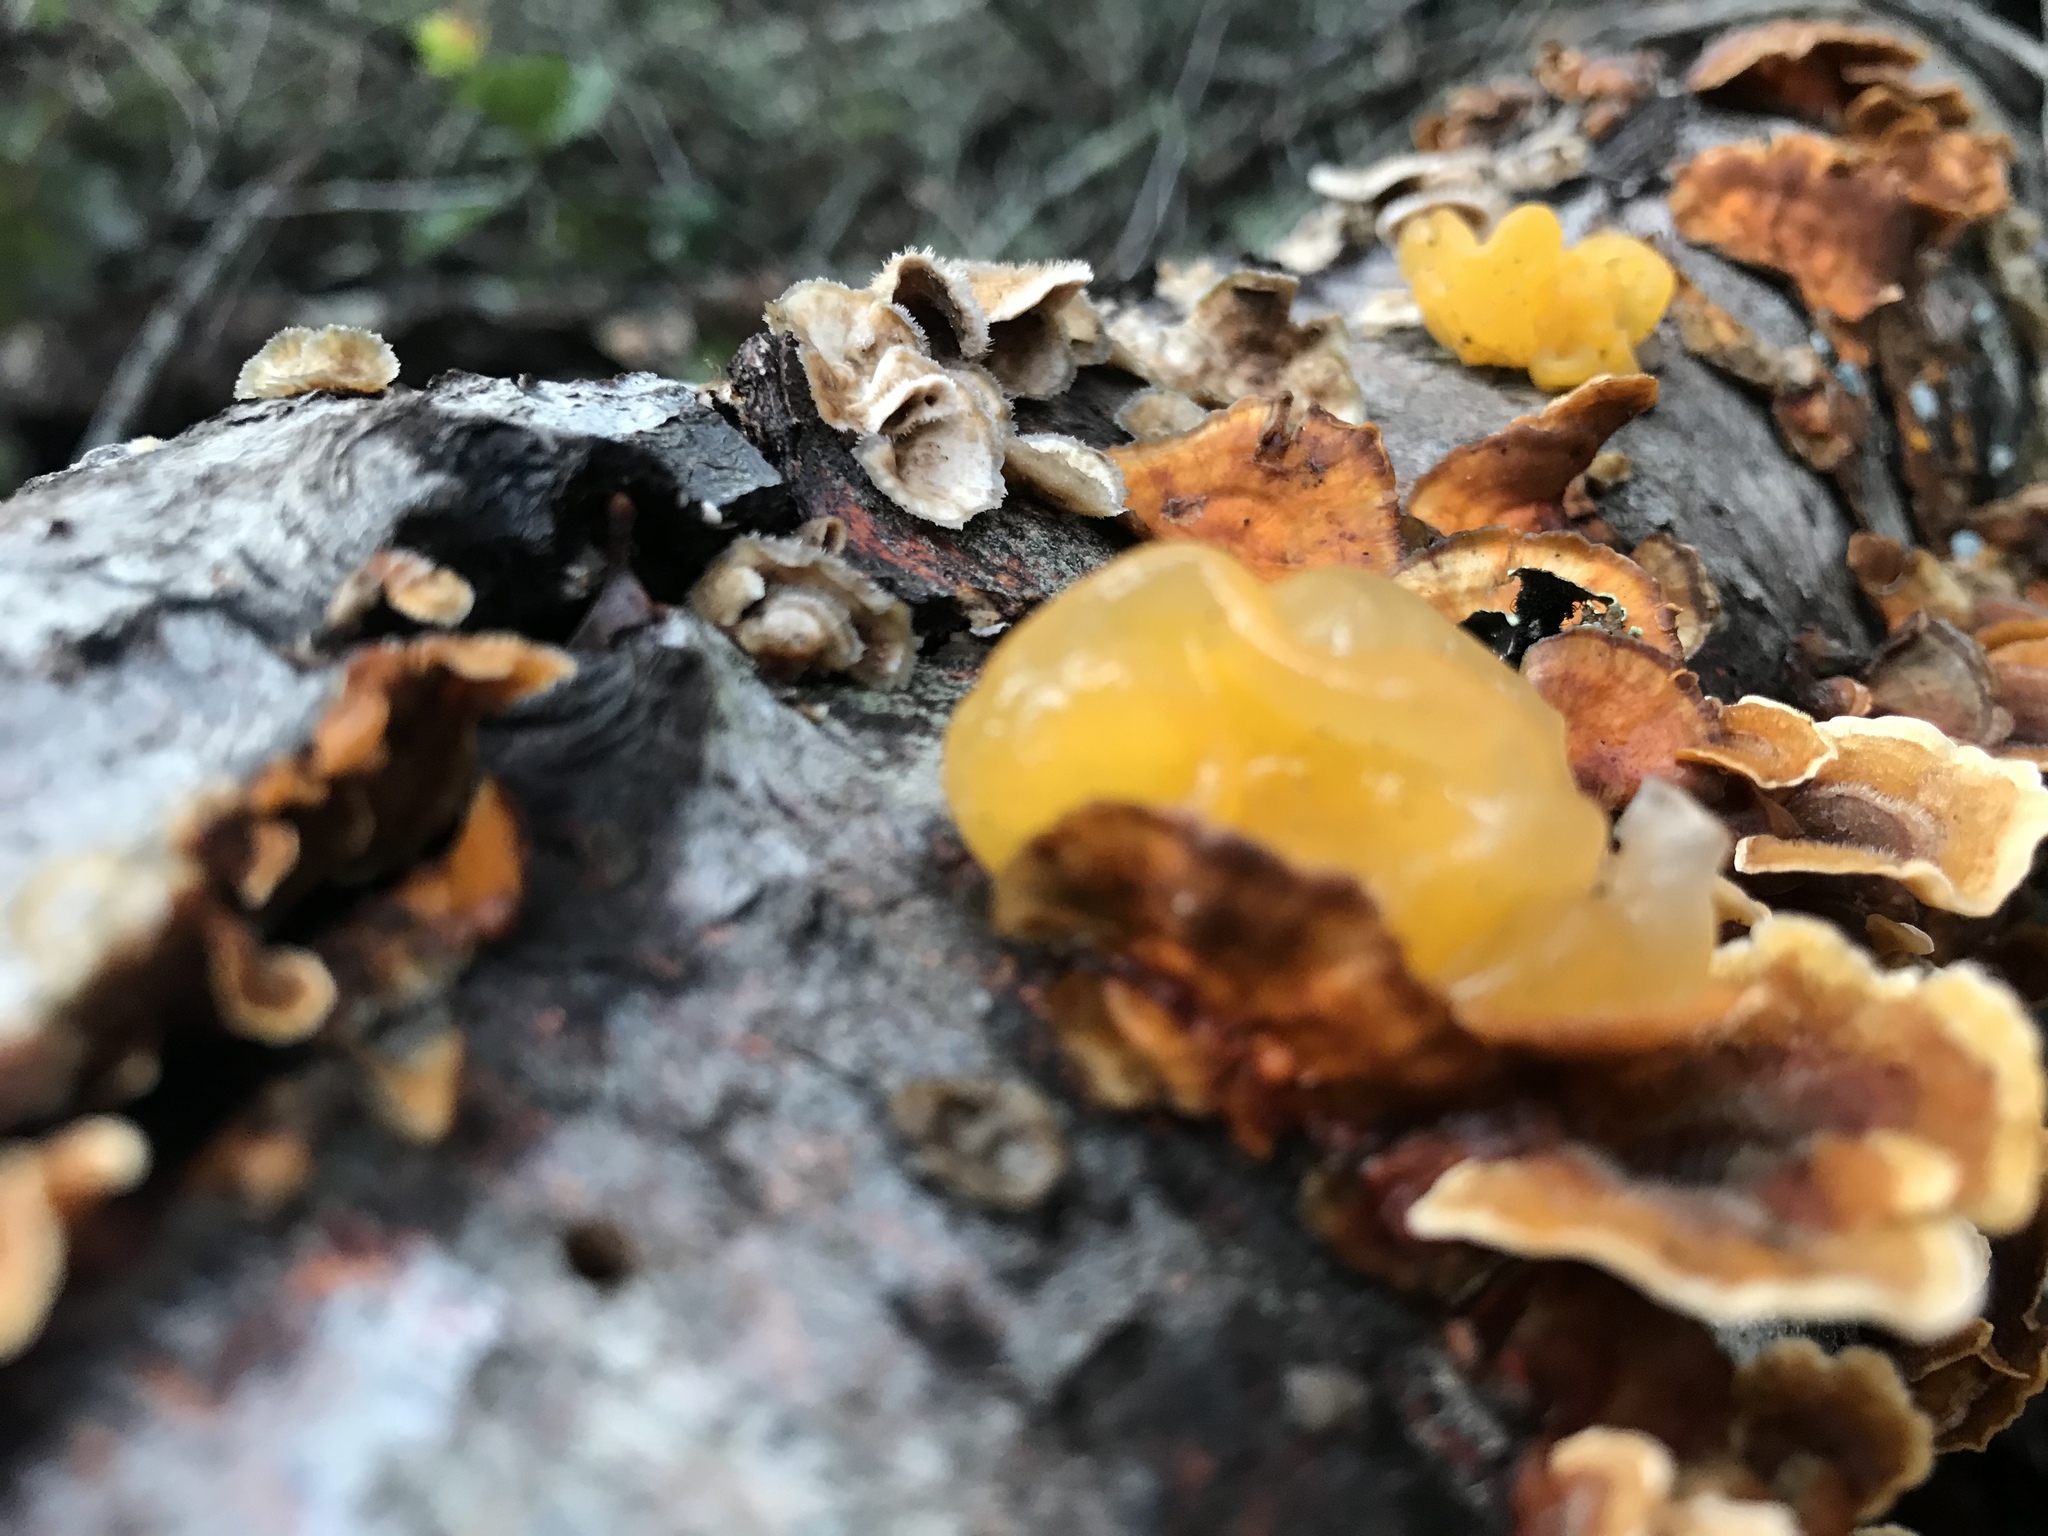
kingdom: Fungi
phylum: Basidiomycota
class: Tremellomycetes
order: Tremellales
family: Naemateliaceae
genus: Naematelia
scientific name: Naematelia aurantia
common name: Golden ear
